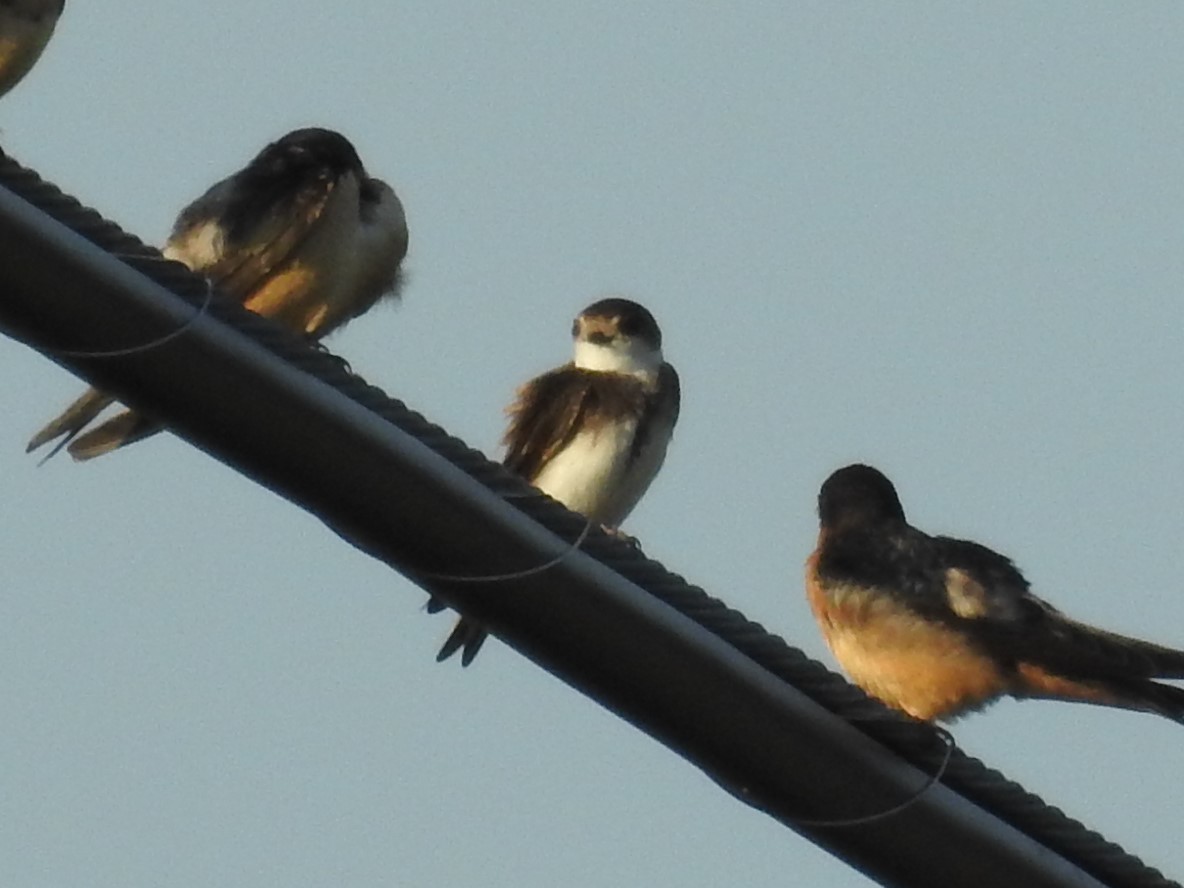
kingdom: Animalia
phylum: Chordata
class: Aves
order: Passeriformes
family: Hirundinidae
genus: Riparia
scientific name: Riparia riparia
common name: Sand martin
